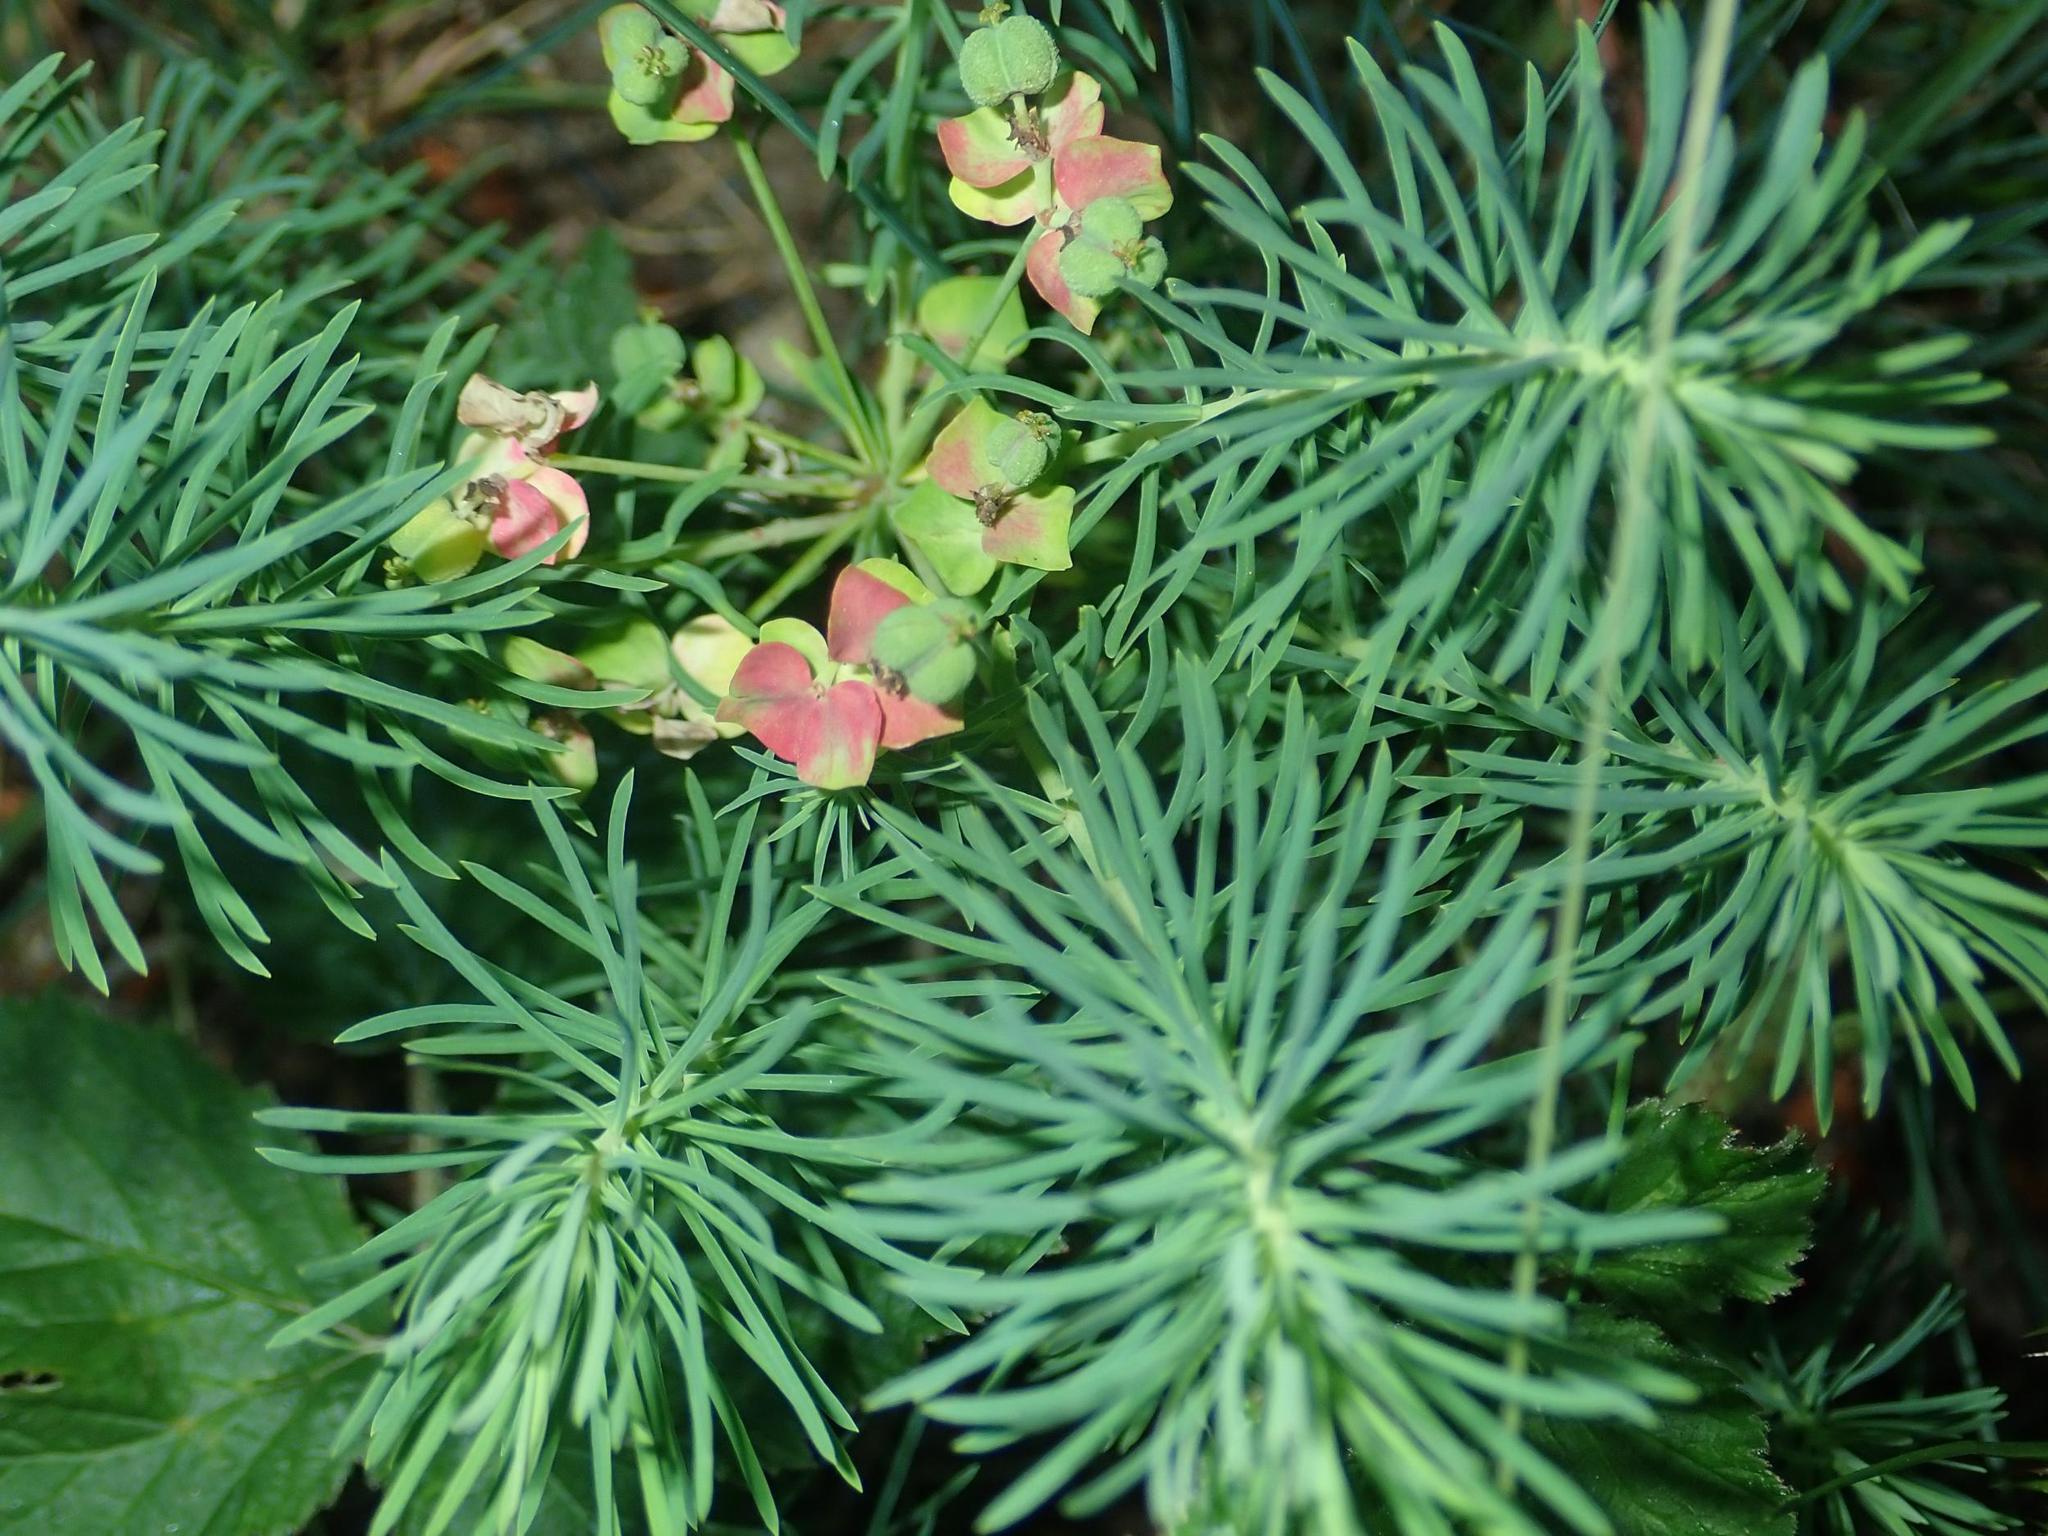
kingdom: Plantae
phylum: Tracheophyta
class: Magnoliopsida
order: Malpighiales
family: Euphorbiaceae
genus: Euphorbia
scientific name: Euphorbia cyparissias
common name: Cypress spurge
